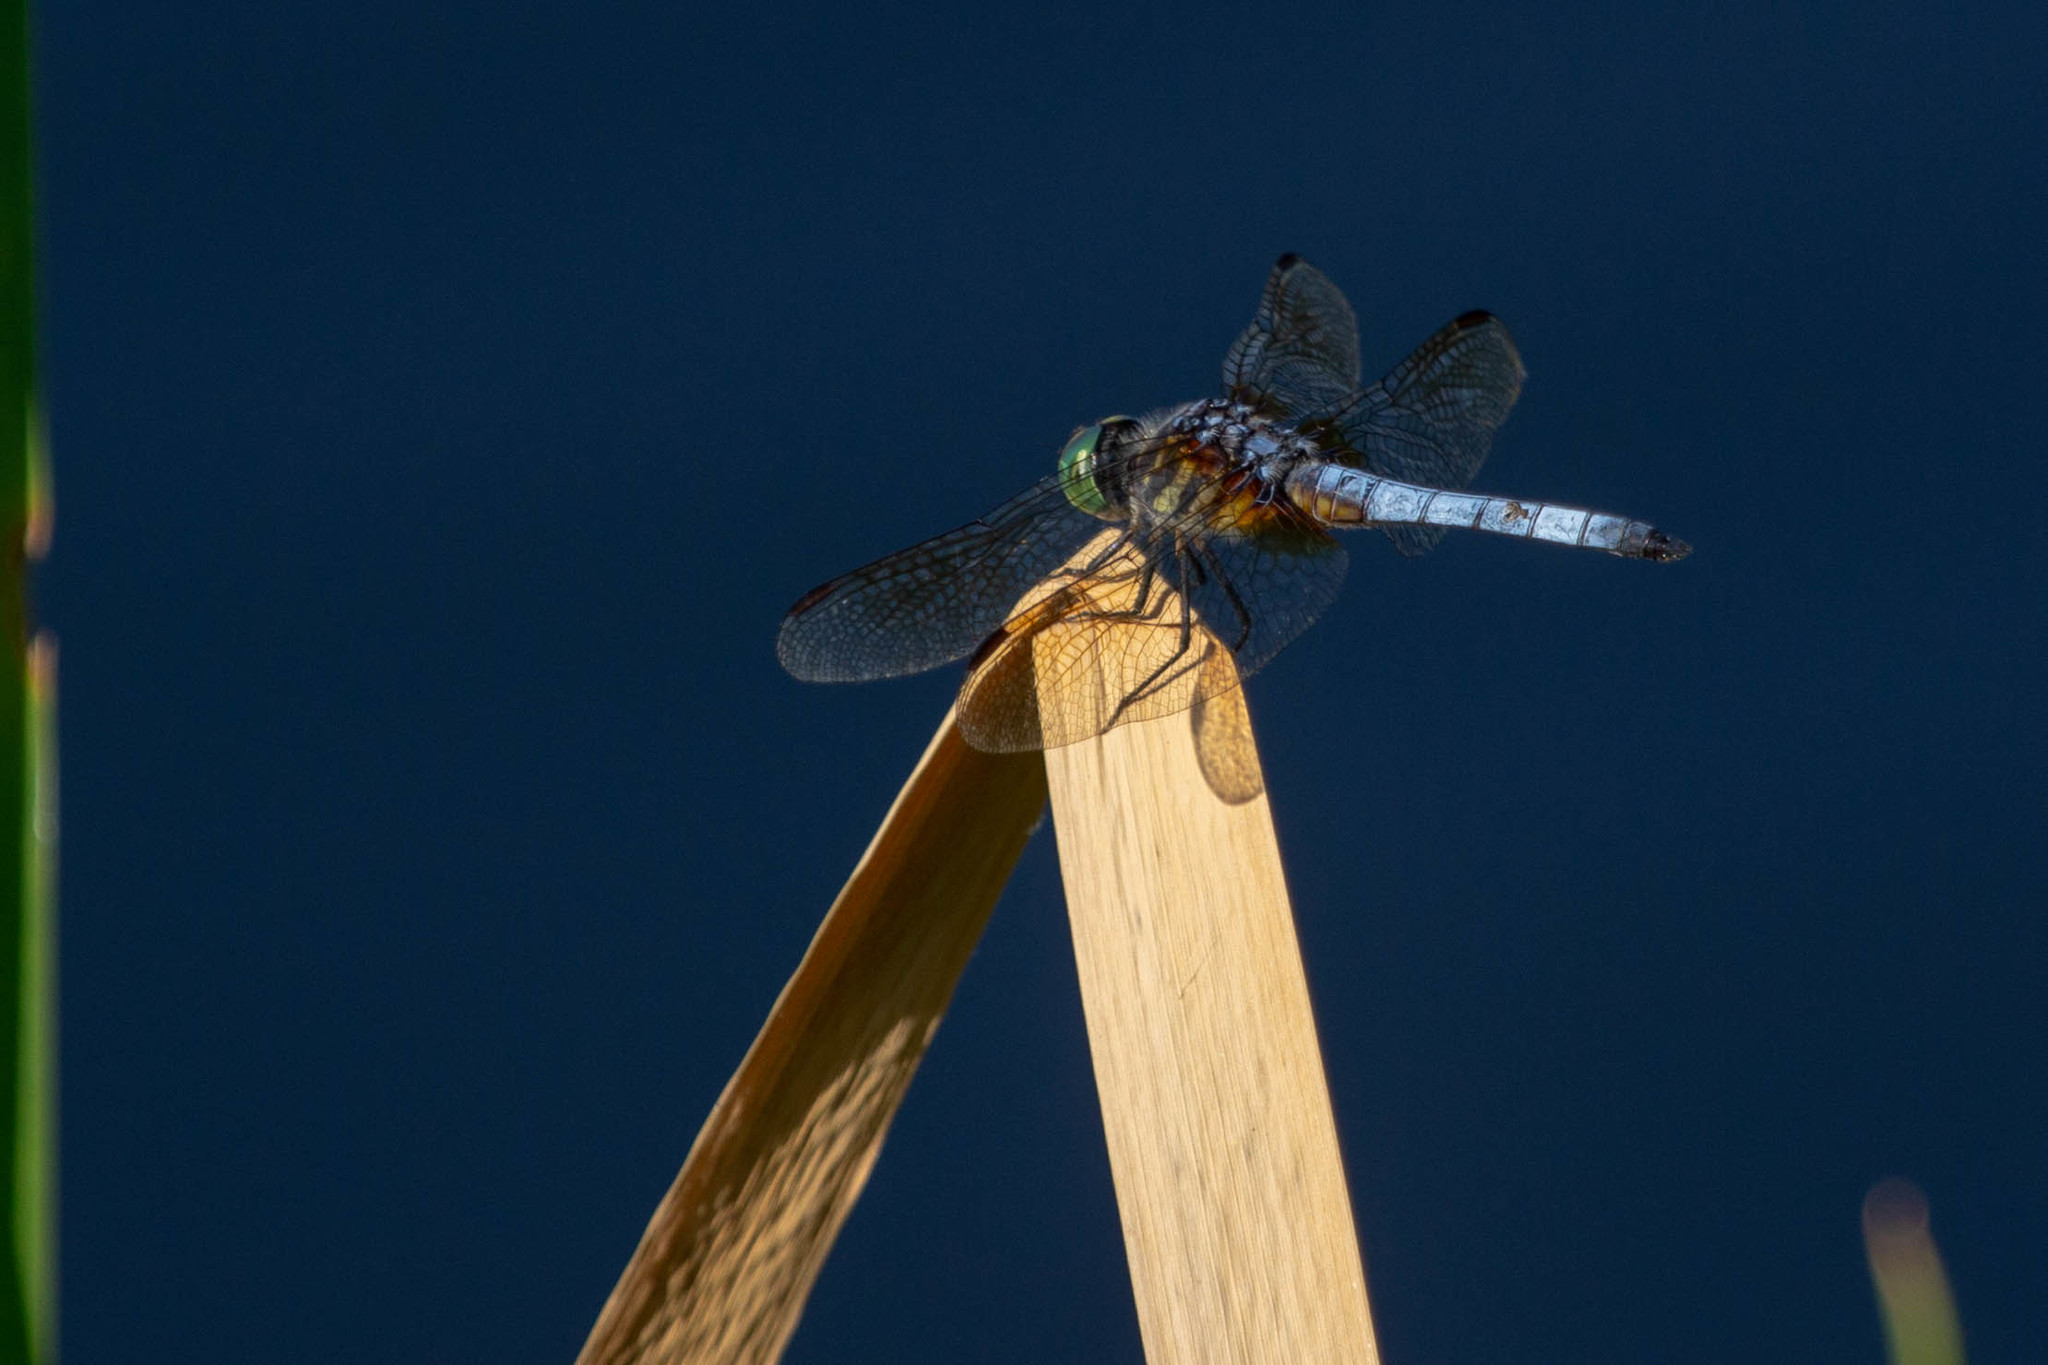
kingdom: Animalia
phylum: Arthropoda
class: Insecta
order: Odonata
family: Libellulidae
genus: Pachydiplax
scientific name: Pachydiplax longipennis
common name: Blue dasher
